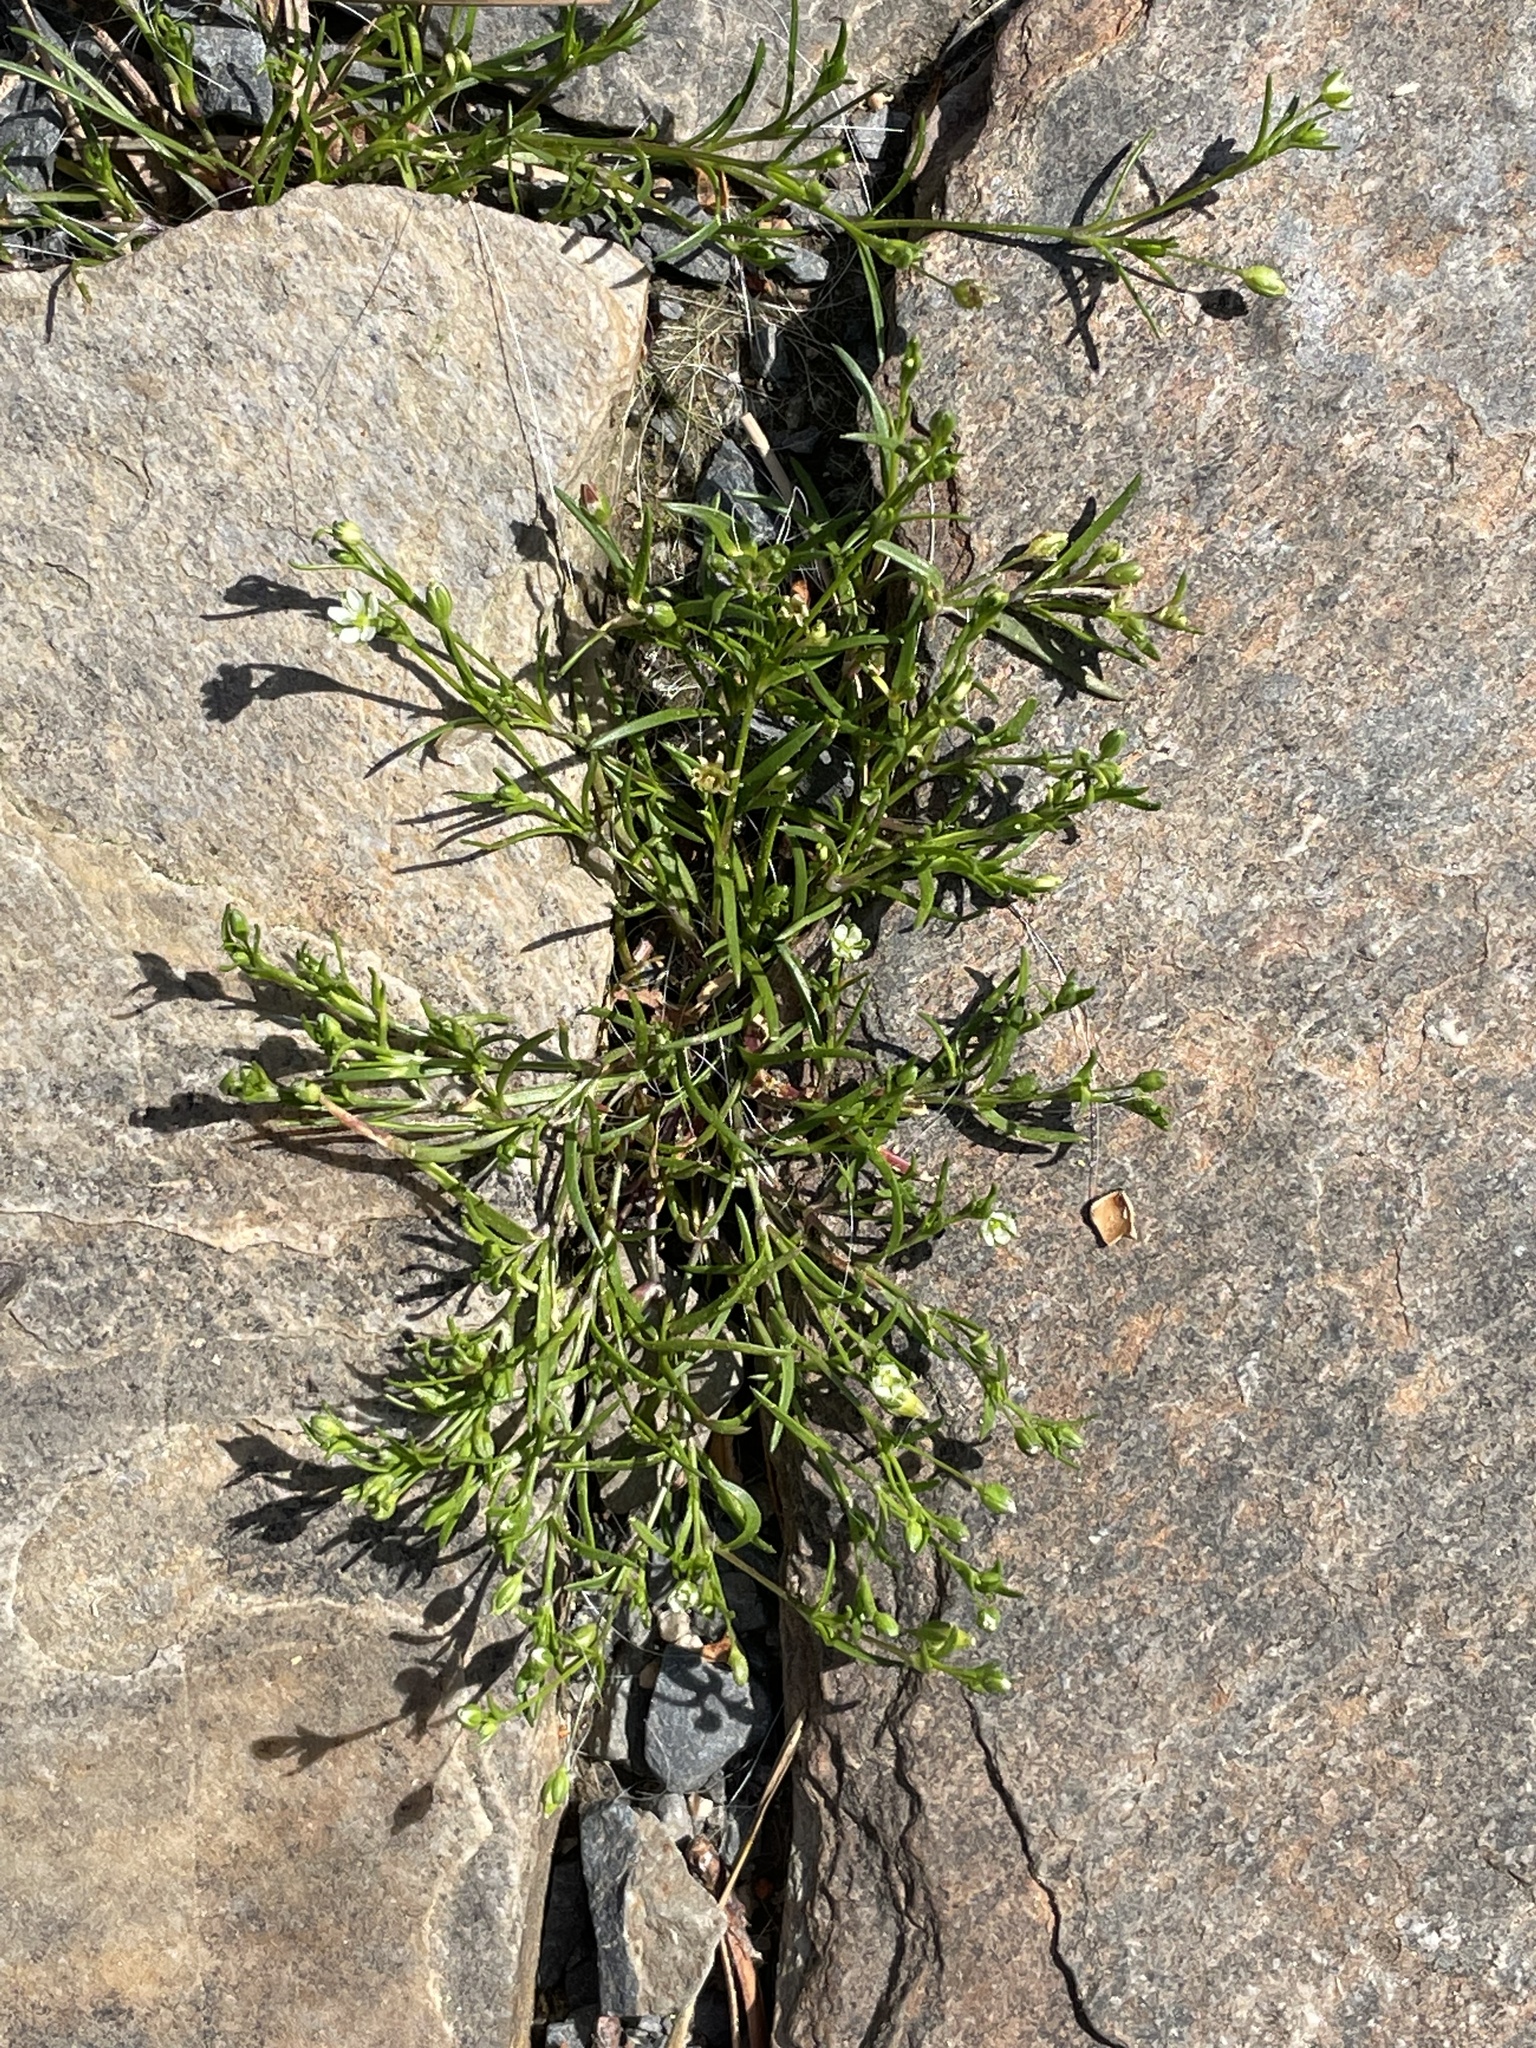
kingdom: Plantae
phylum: Tracheophyta
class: Magnoliopsida
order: Caryophyllales
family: Caryophyllaceae
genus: Sagina
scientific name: Sagina decumbens
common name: Decumbent pearlwort
